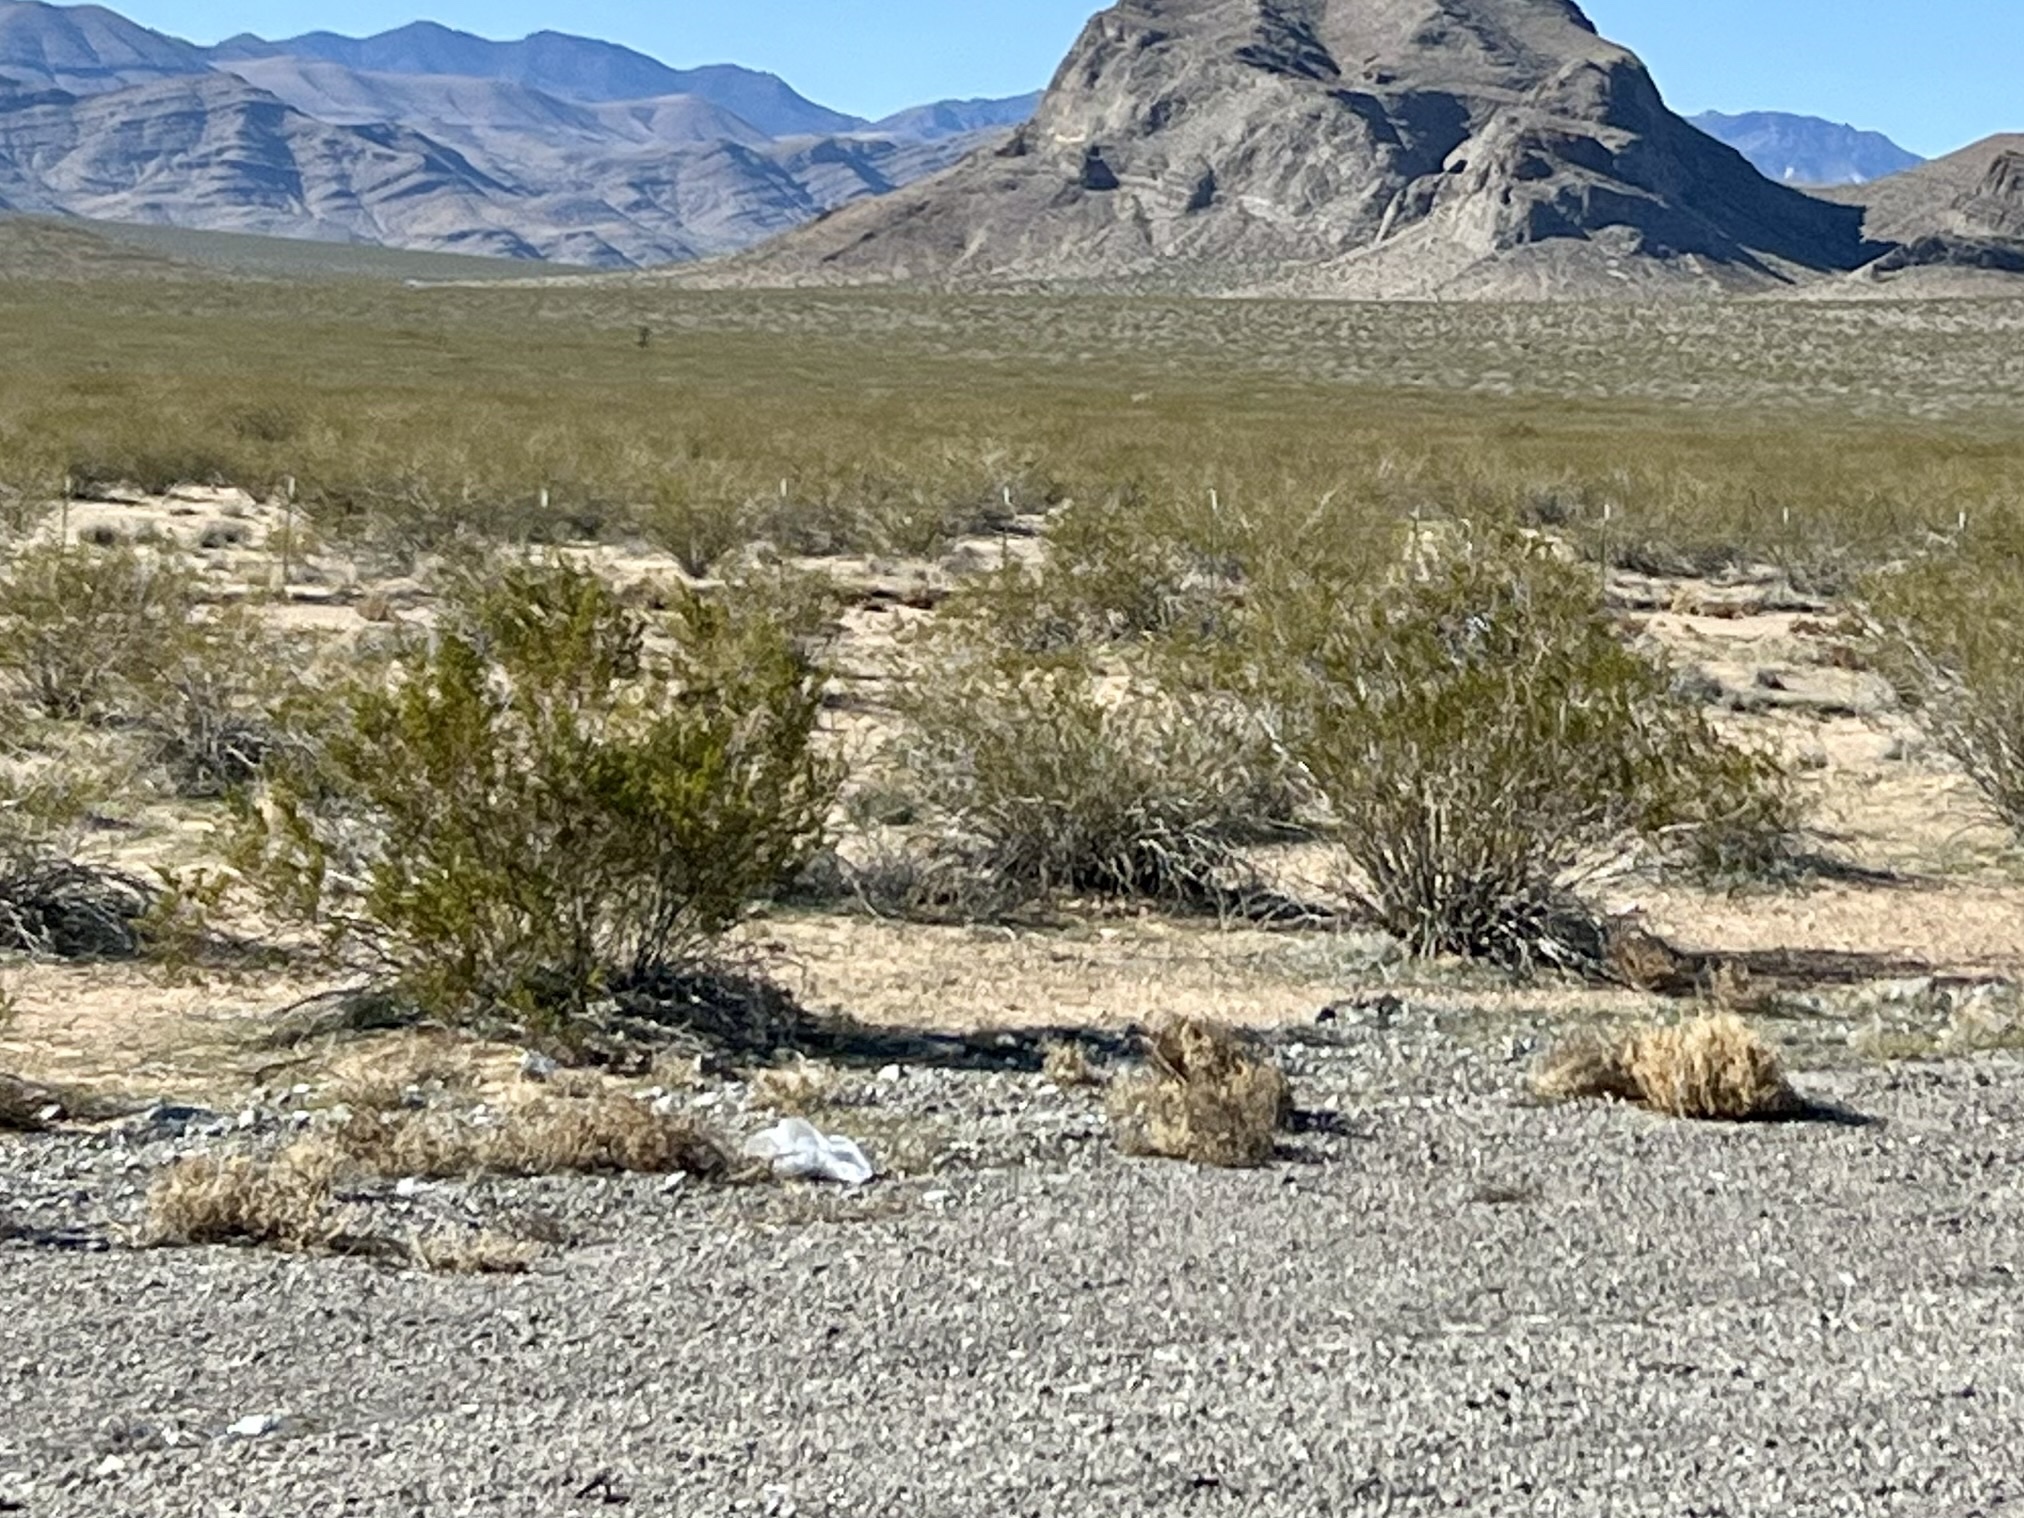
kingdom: Plantae
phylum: Tracheophyta
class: Magnoliopsida
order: Zygophyllales
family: Zygophyllaceae
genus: Larrea
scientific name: Larrea tridentata
